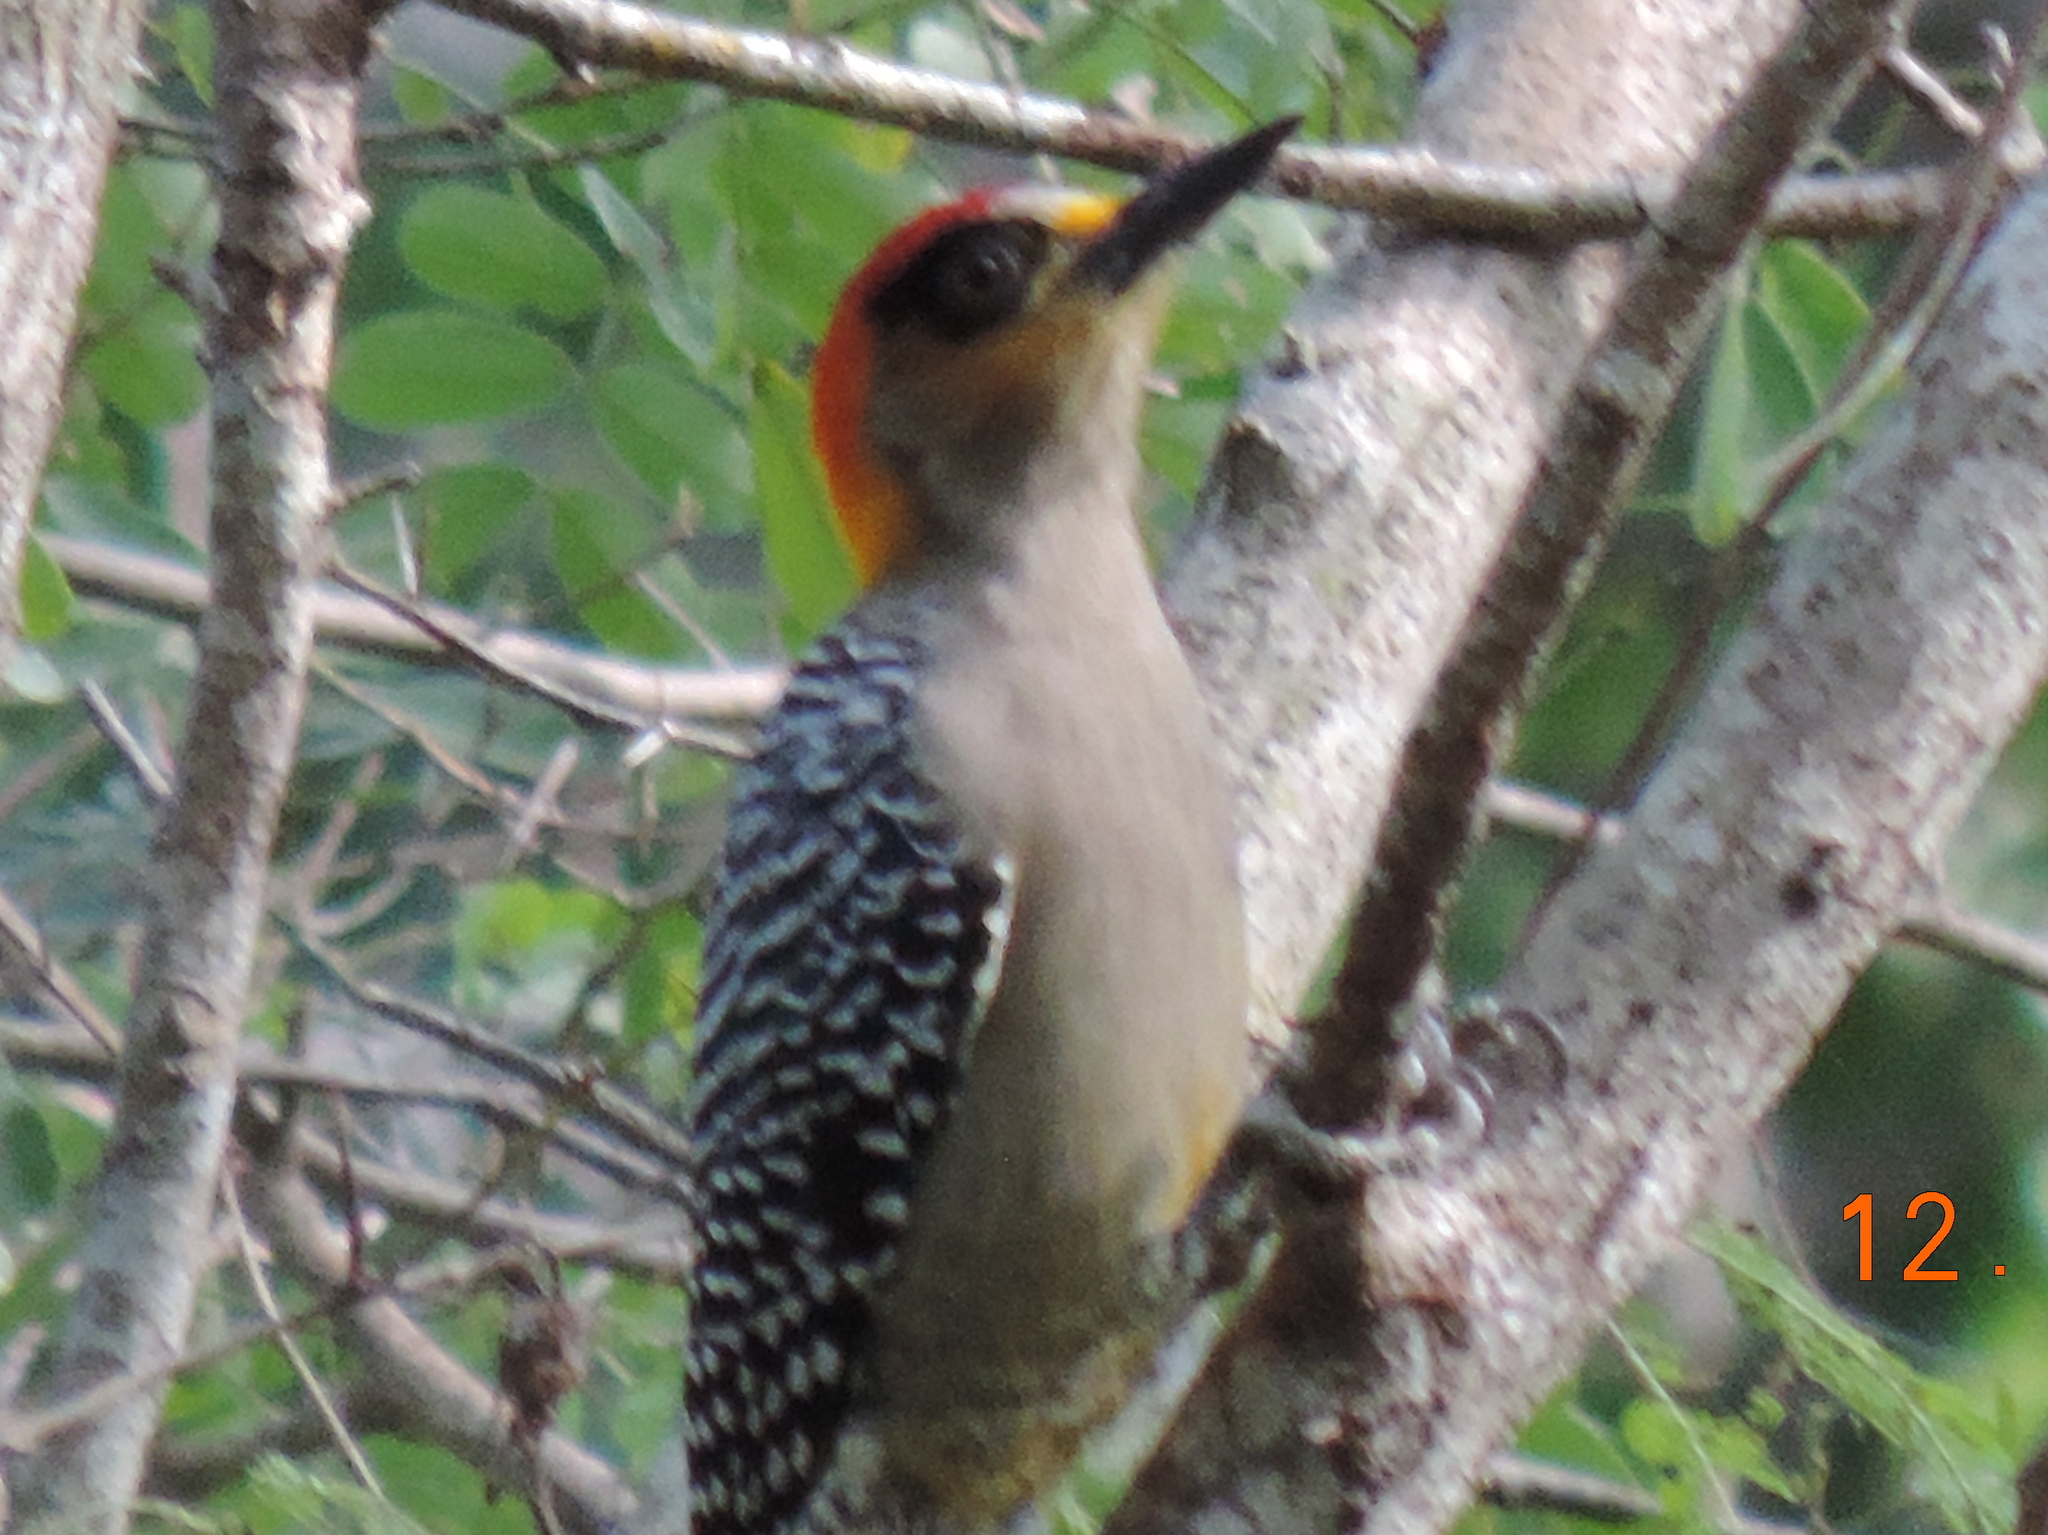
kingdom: Animalia
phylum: Chordata
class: Aves
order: Piciformes
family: Picidae
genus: Melanerpes
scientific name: Melanerpes chrysogenys
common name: Golden-cheeked woodpecker
